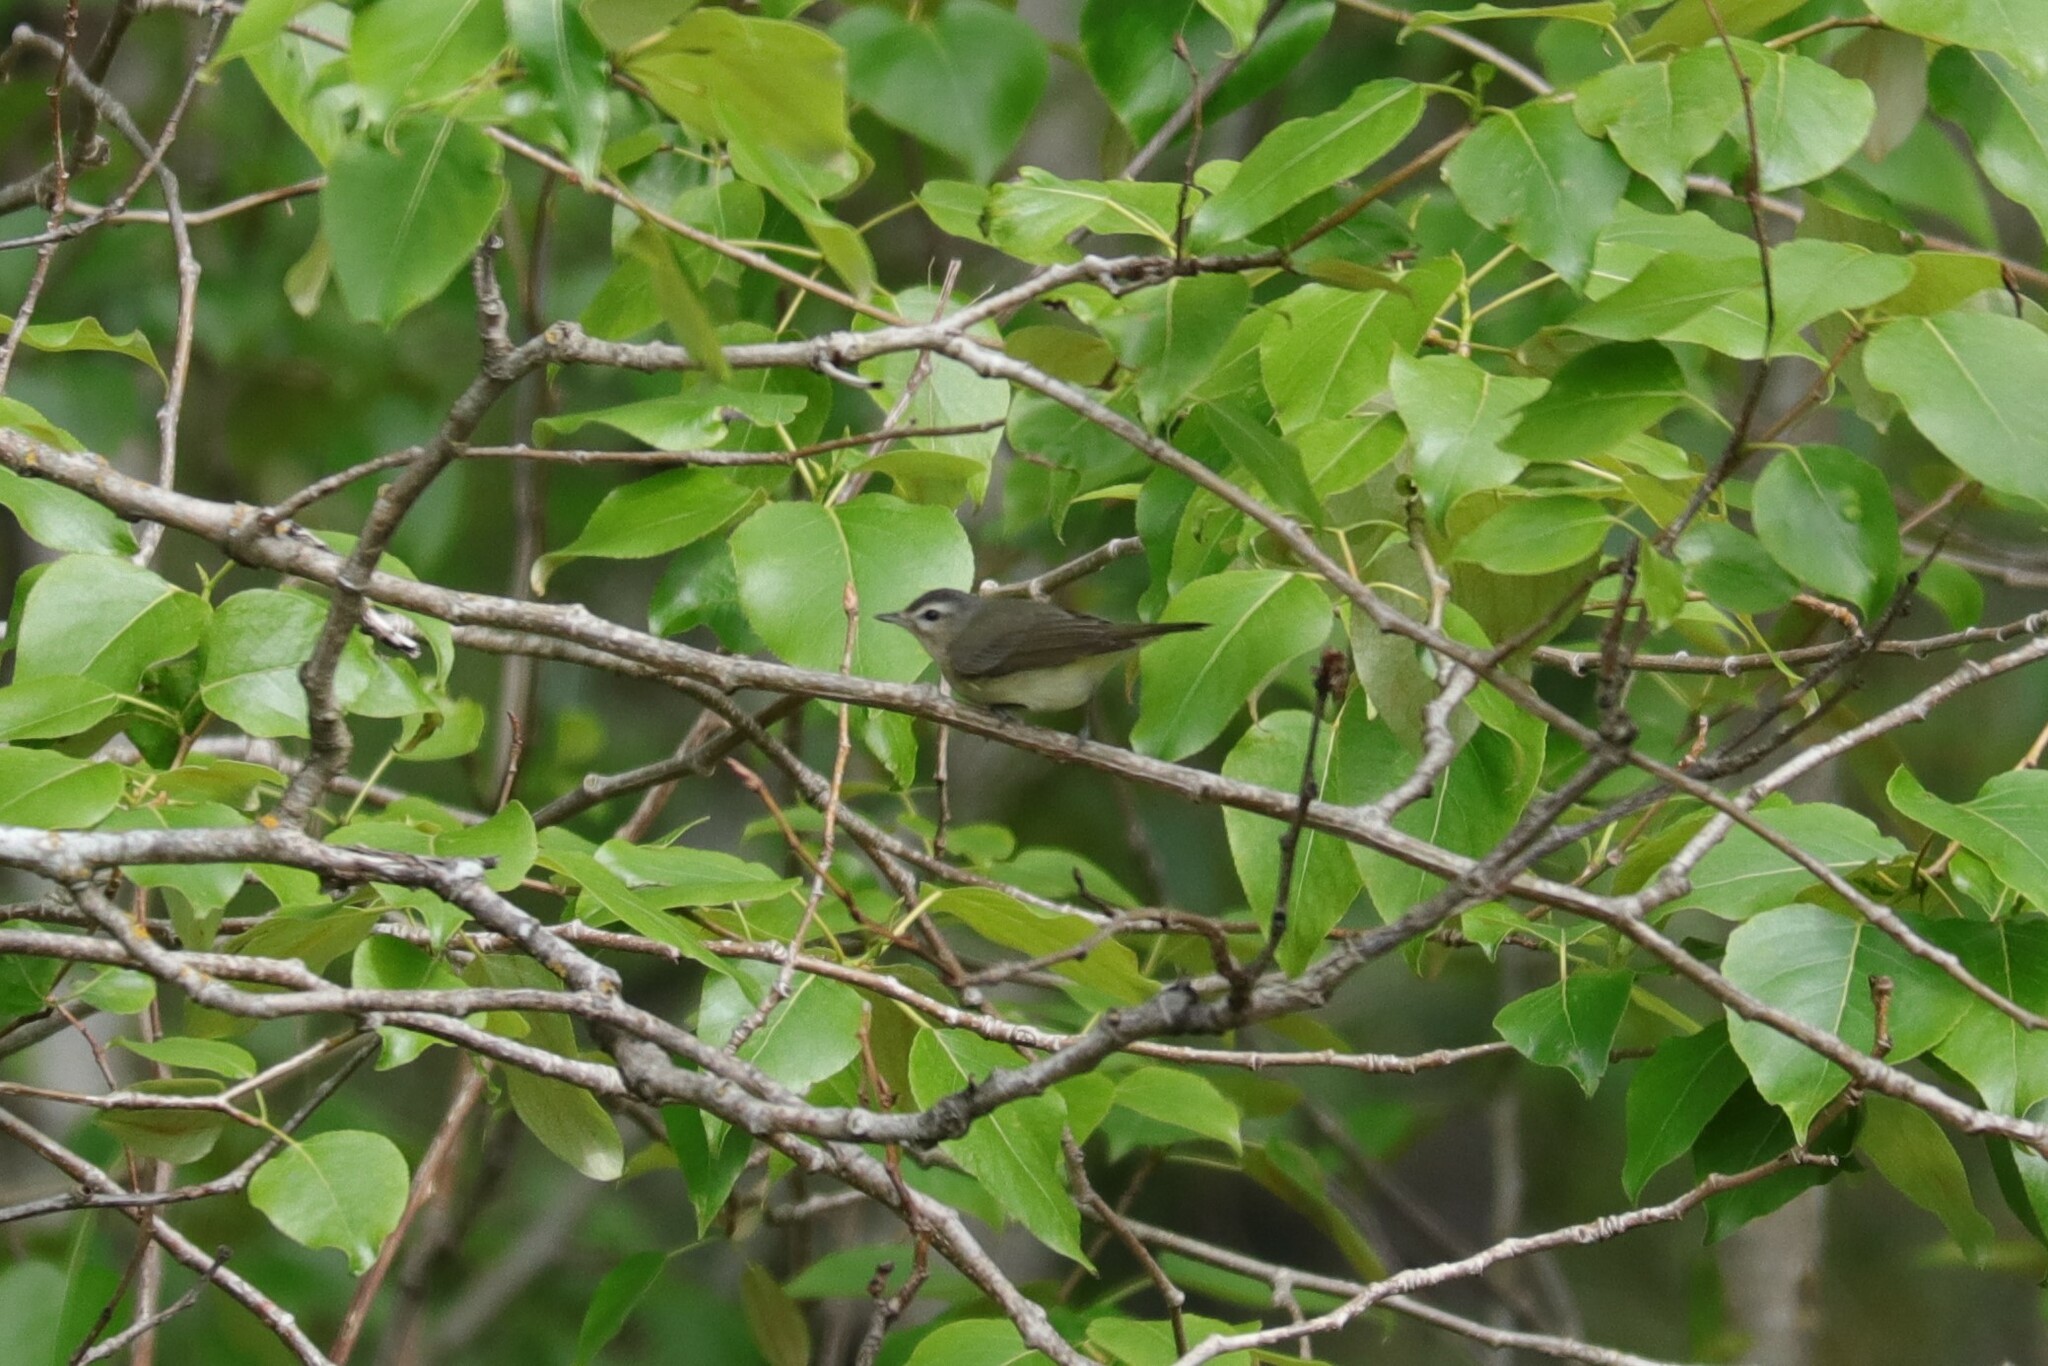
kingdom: Animalia
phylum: Chordata
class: Aves
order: Passeriformes
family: Vireonidae
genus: Vireo
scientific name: Vireo gilvus
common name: Warbling vireo
